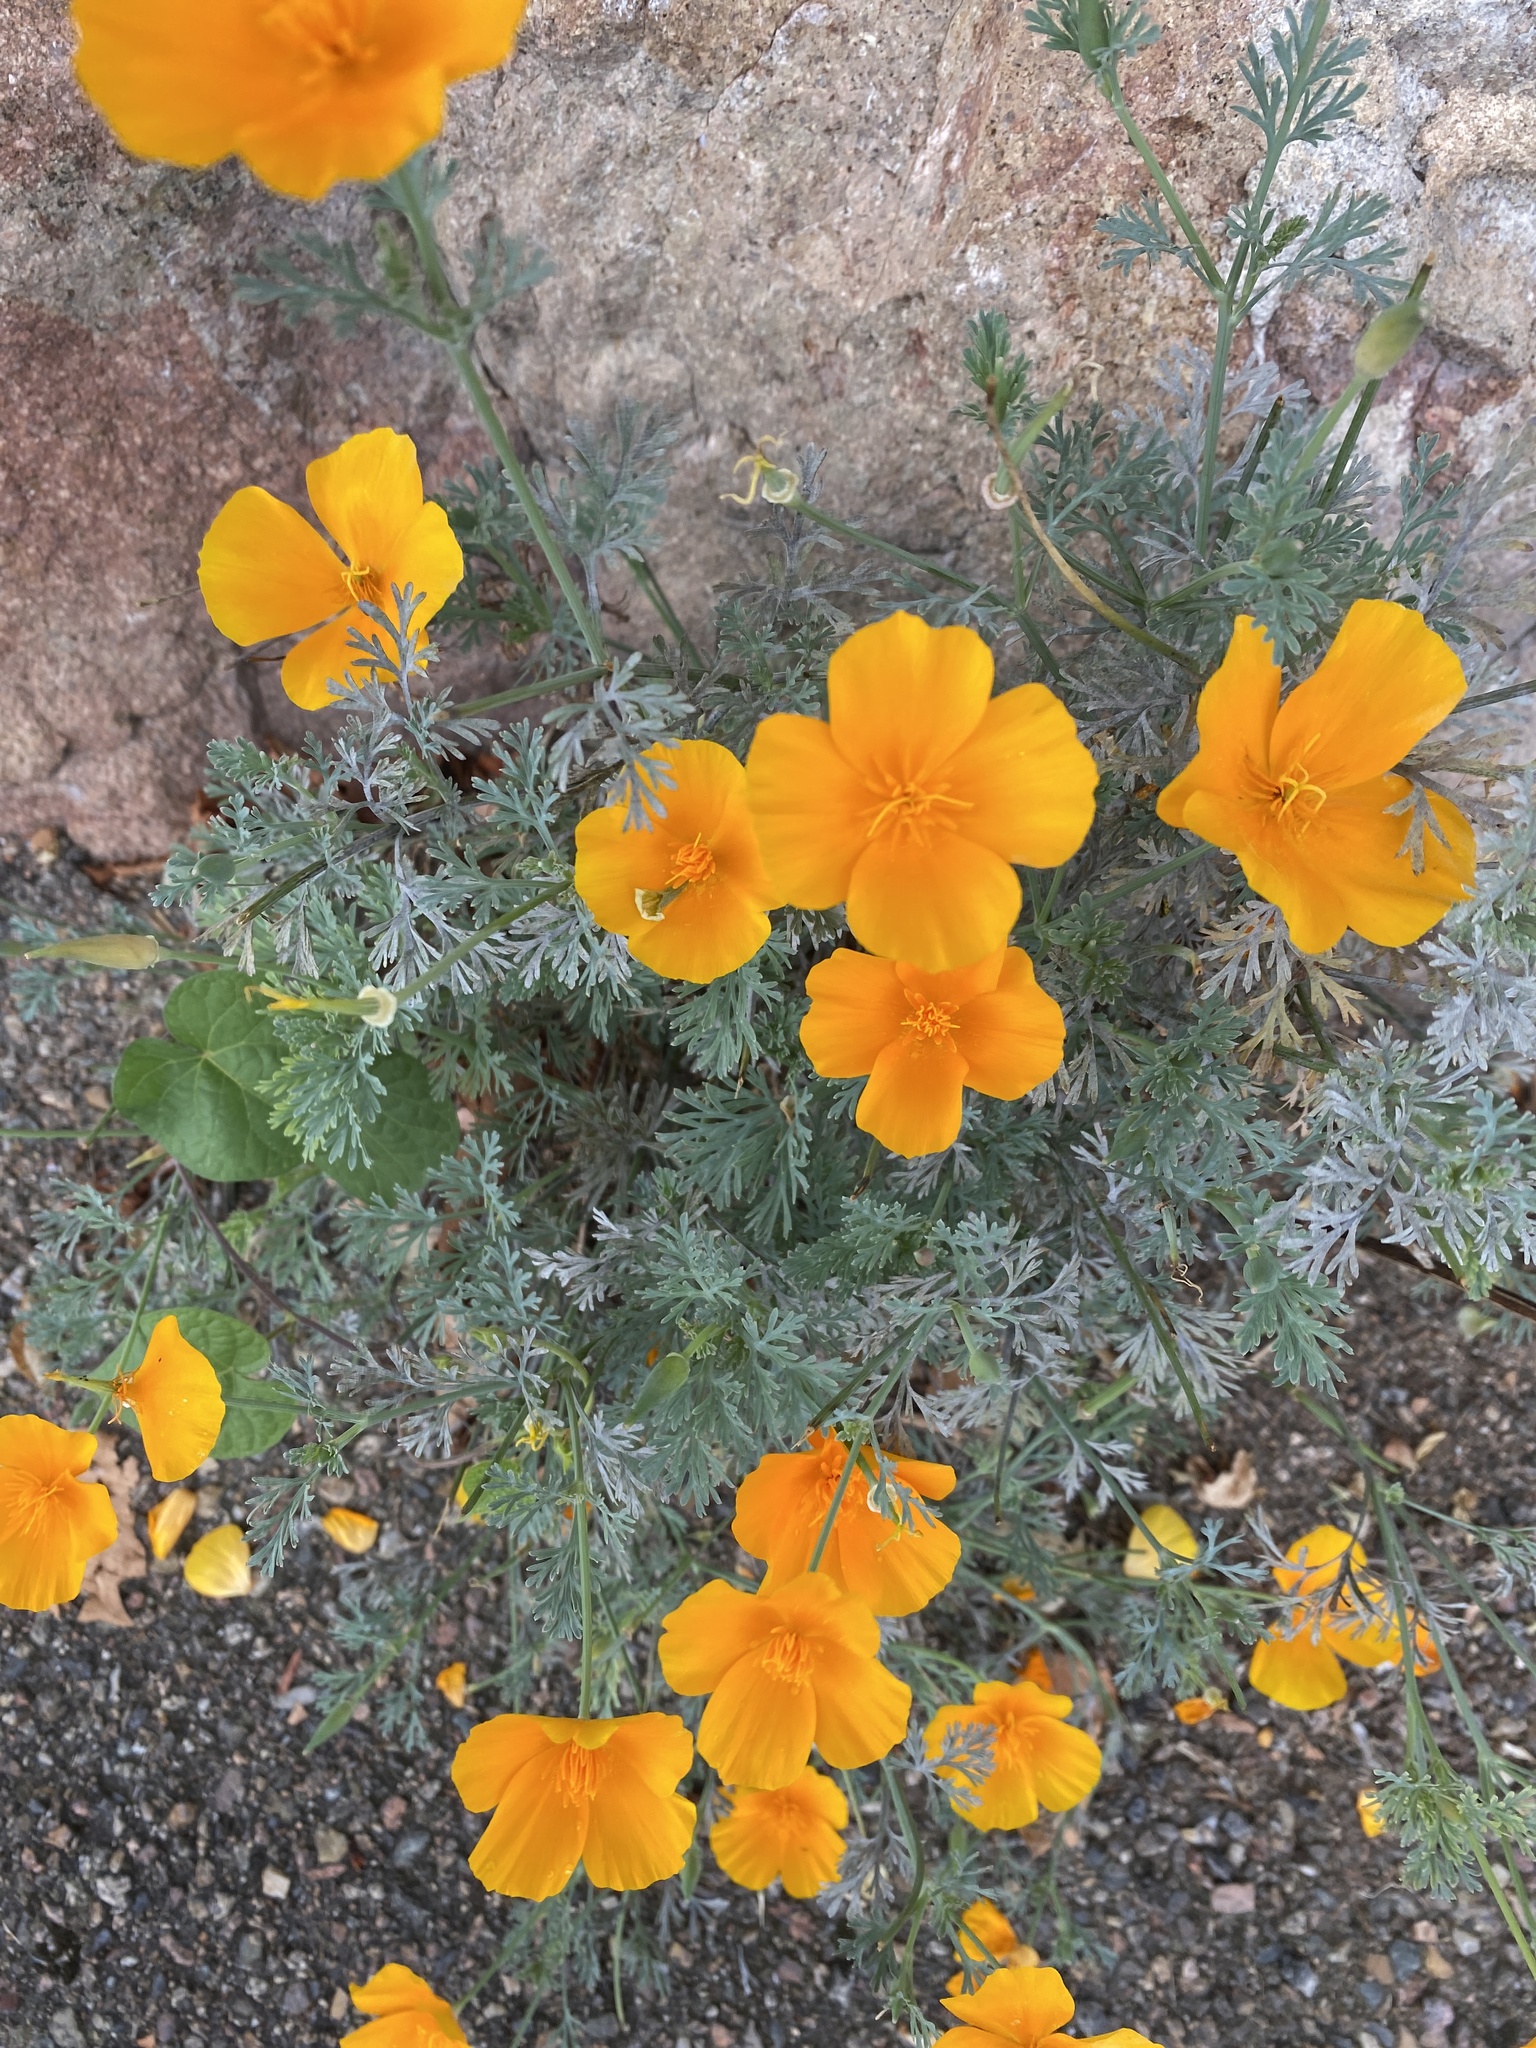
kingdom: Plantae
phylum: Tracheophyta
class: Magnoliopsida
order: Ranunculales
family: Papaveraceae
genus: Eschscholzia
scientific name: Eschscholzia californica
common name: California poppy
